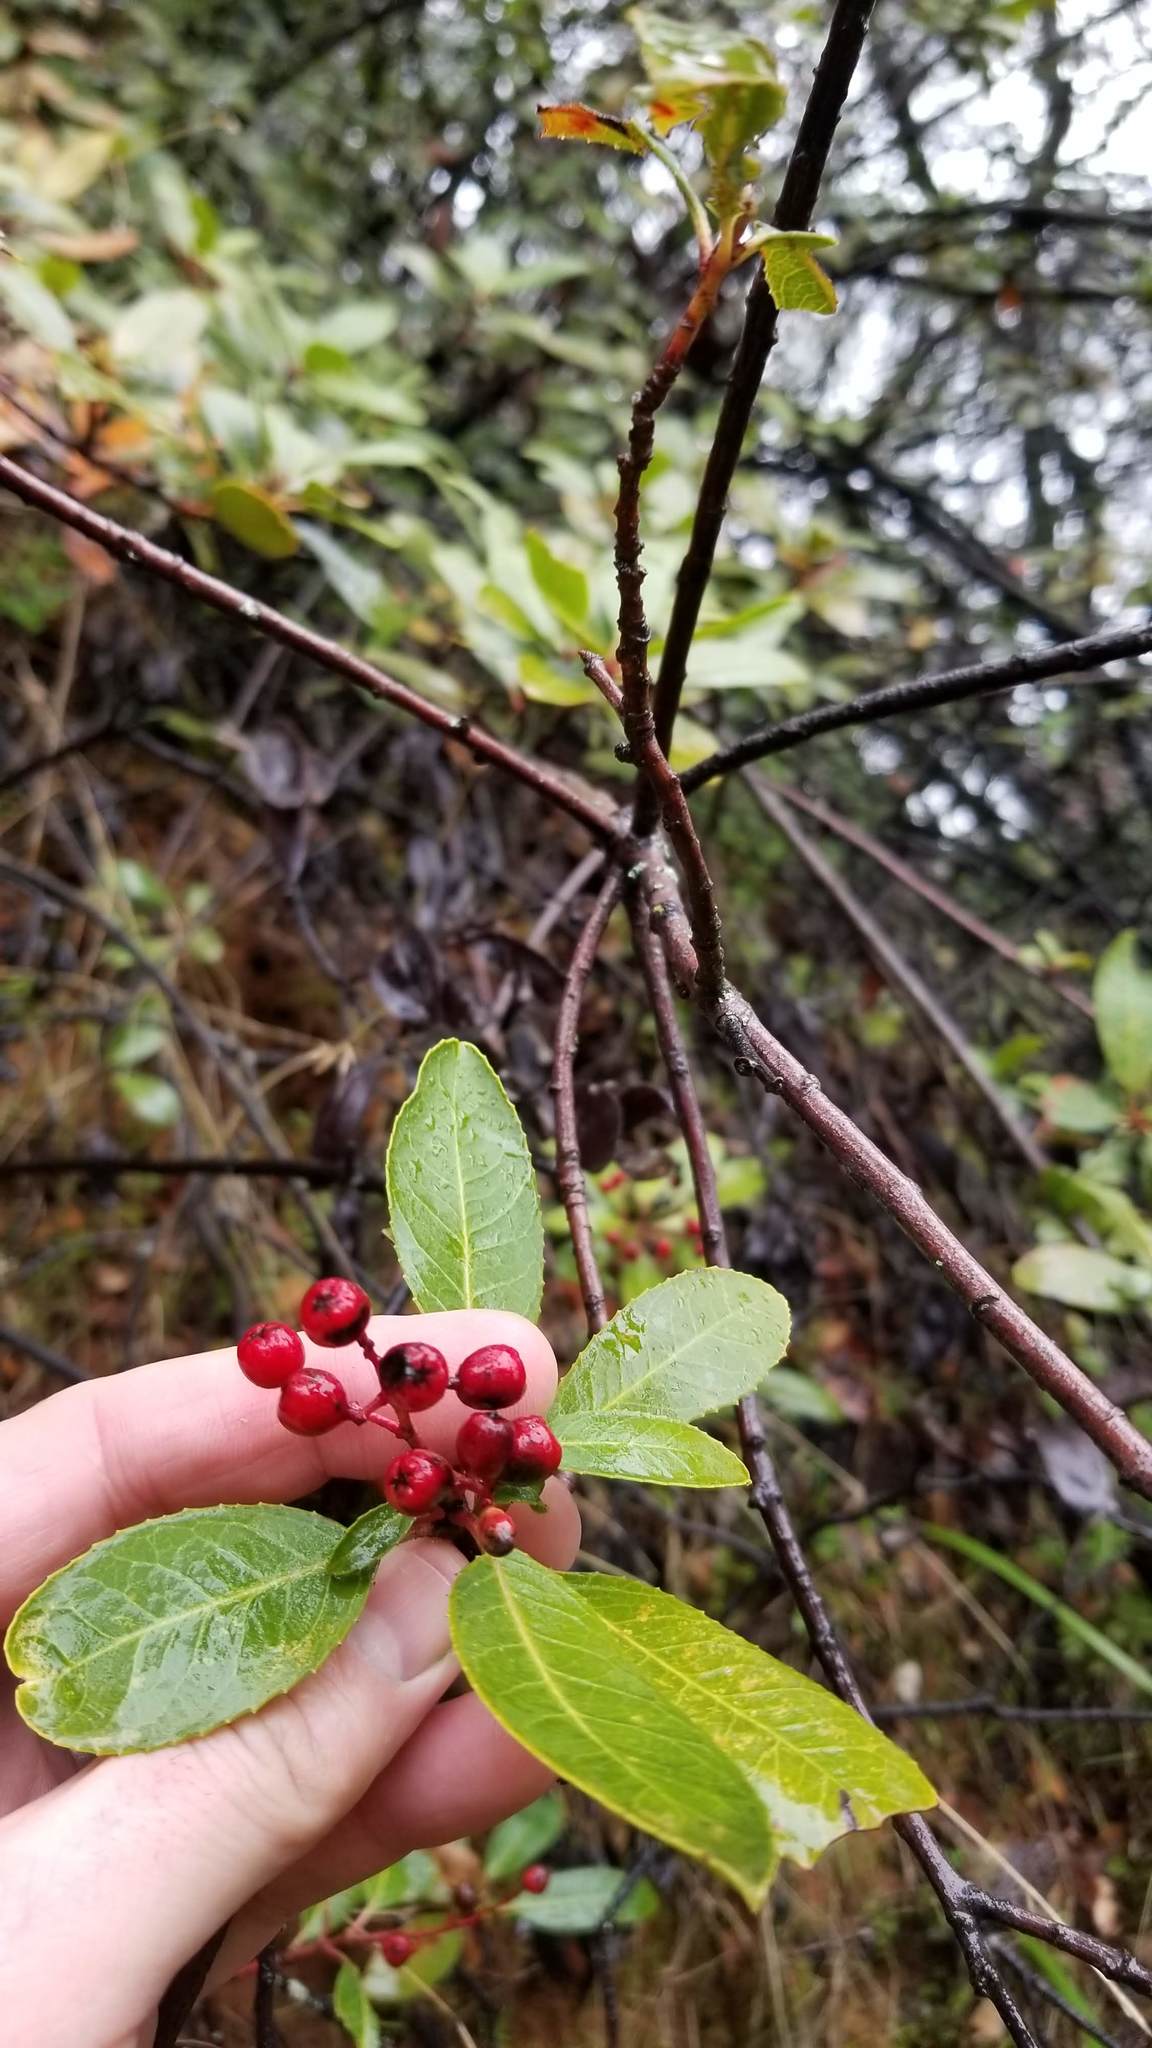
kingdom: Plantae
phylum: Tracheophyta
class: Magnoliopsida
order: Rosales
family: Rosaceae
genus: Heteromeles
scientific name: Heteromeles arbutifolia
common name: California-holly
